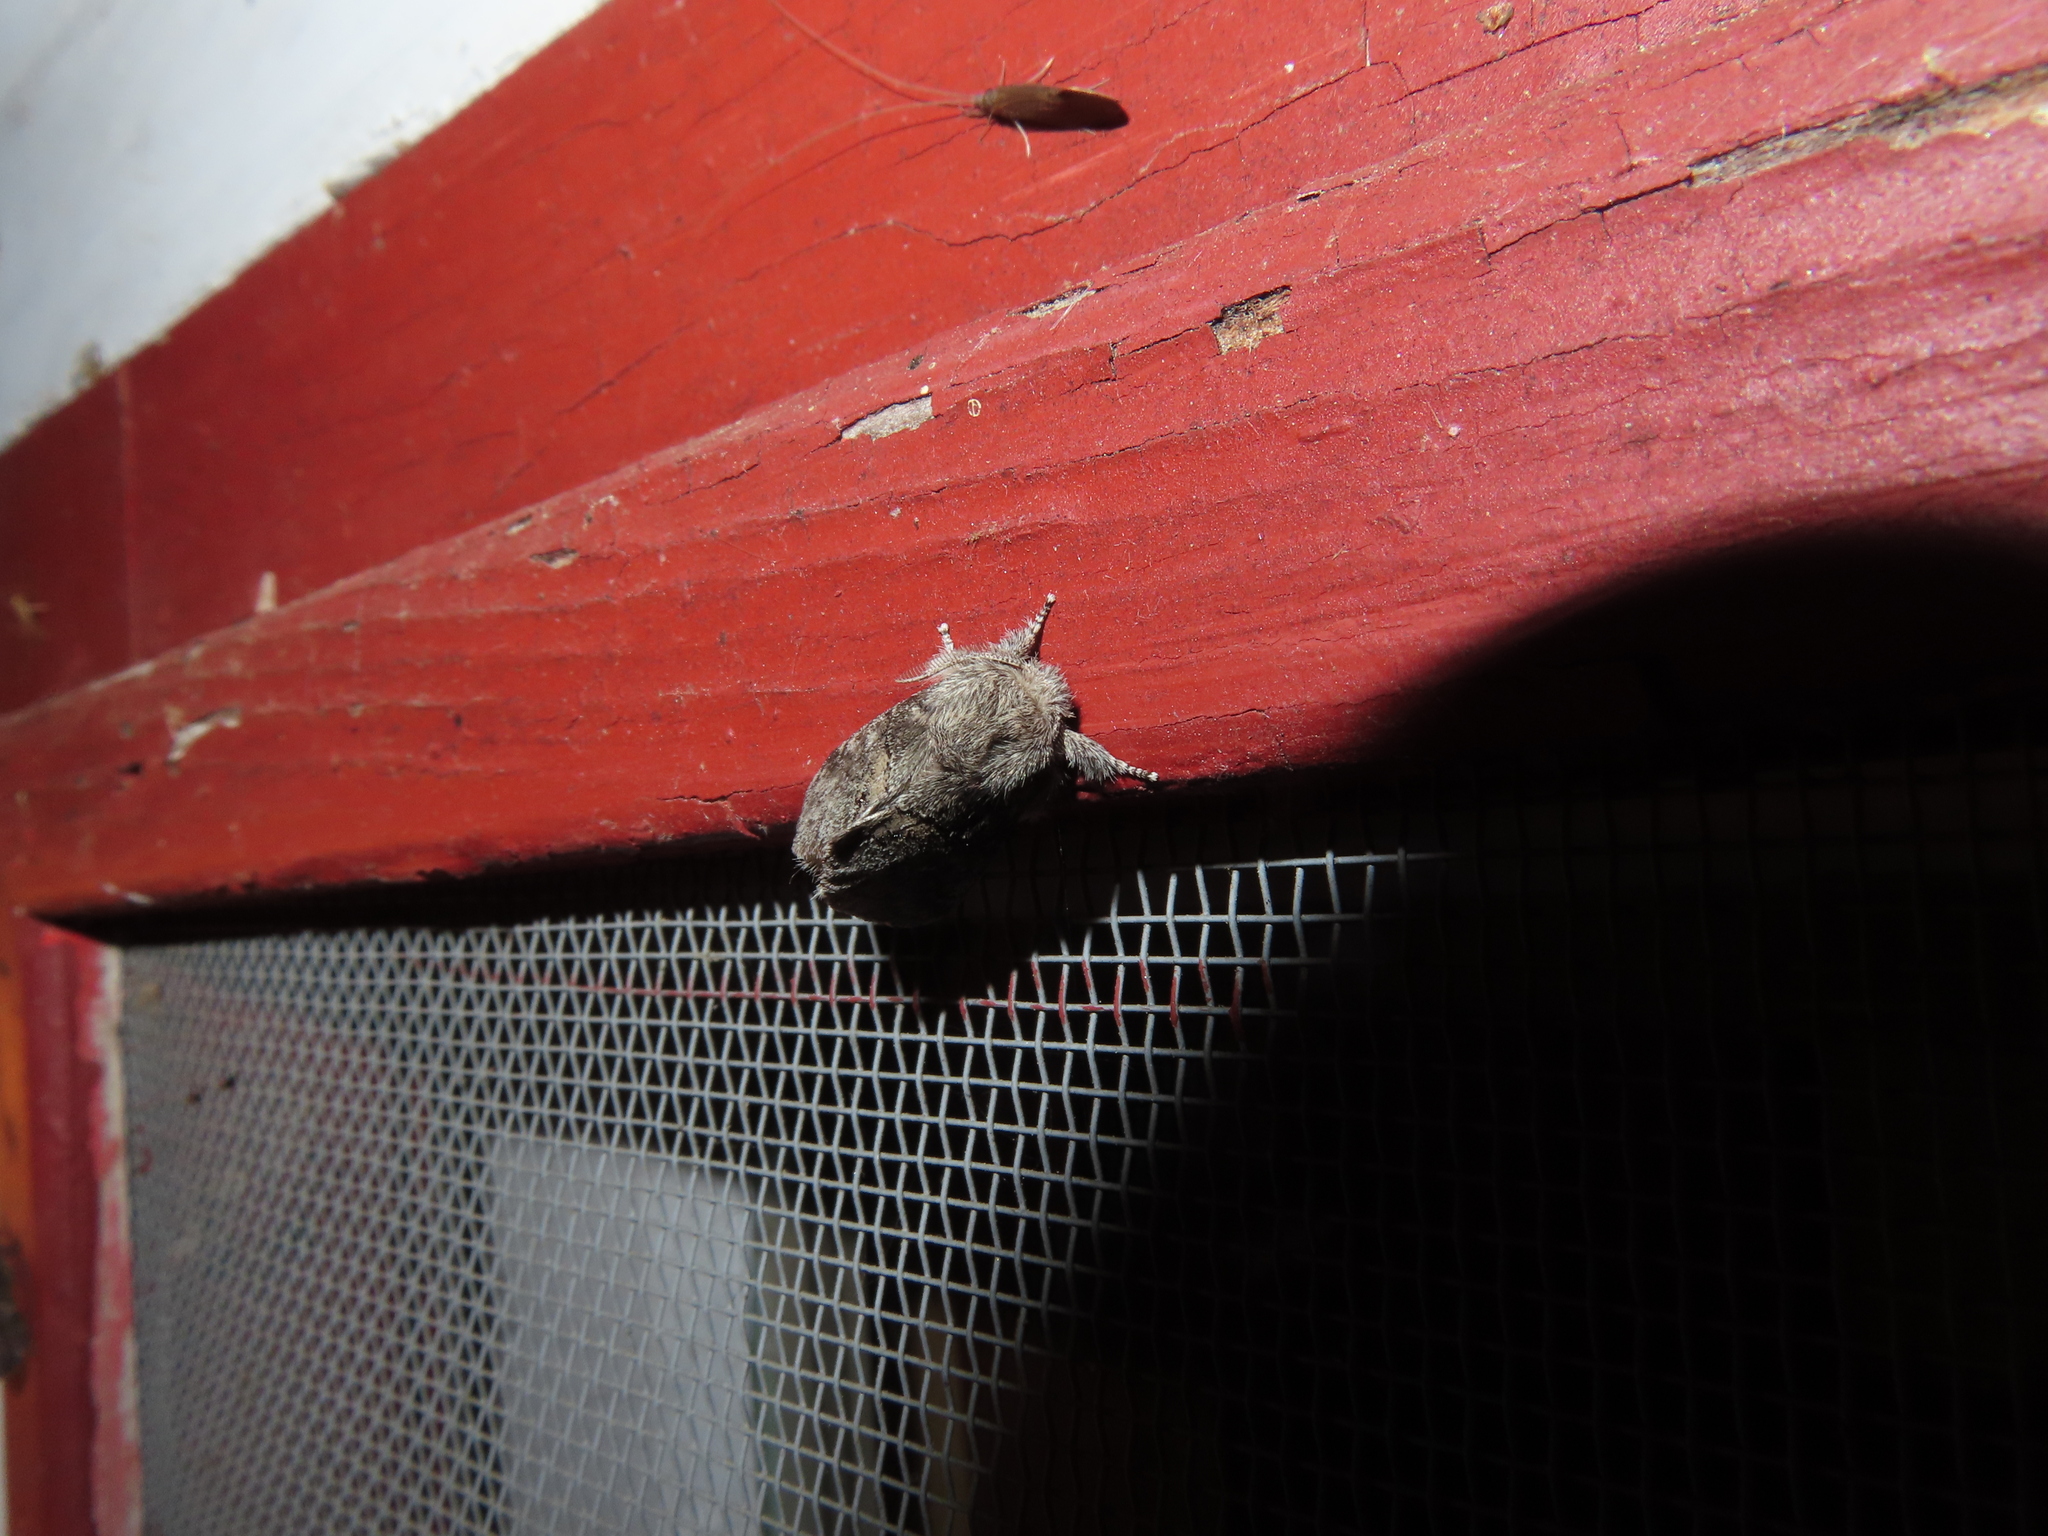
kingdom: Animalia
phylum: Arthropoda
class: Insecta
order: Lepidoptera
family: Notodontidae
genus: Gluphisia
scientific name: Gluphisia septentrionis
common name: Common gluphisia
